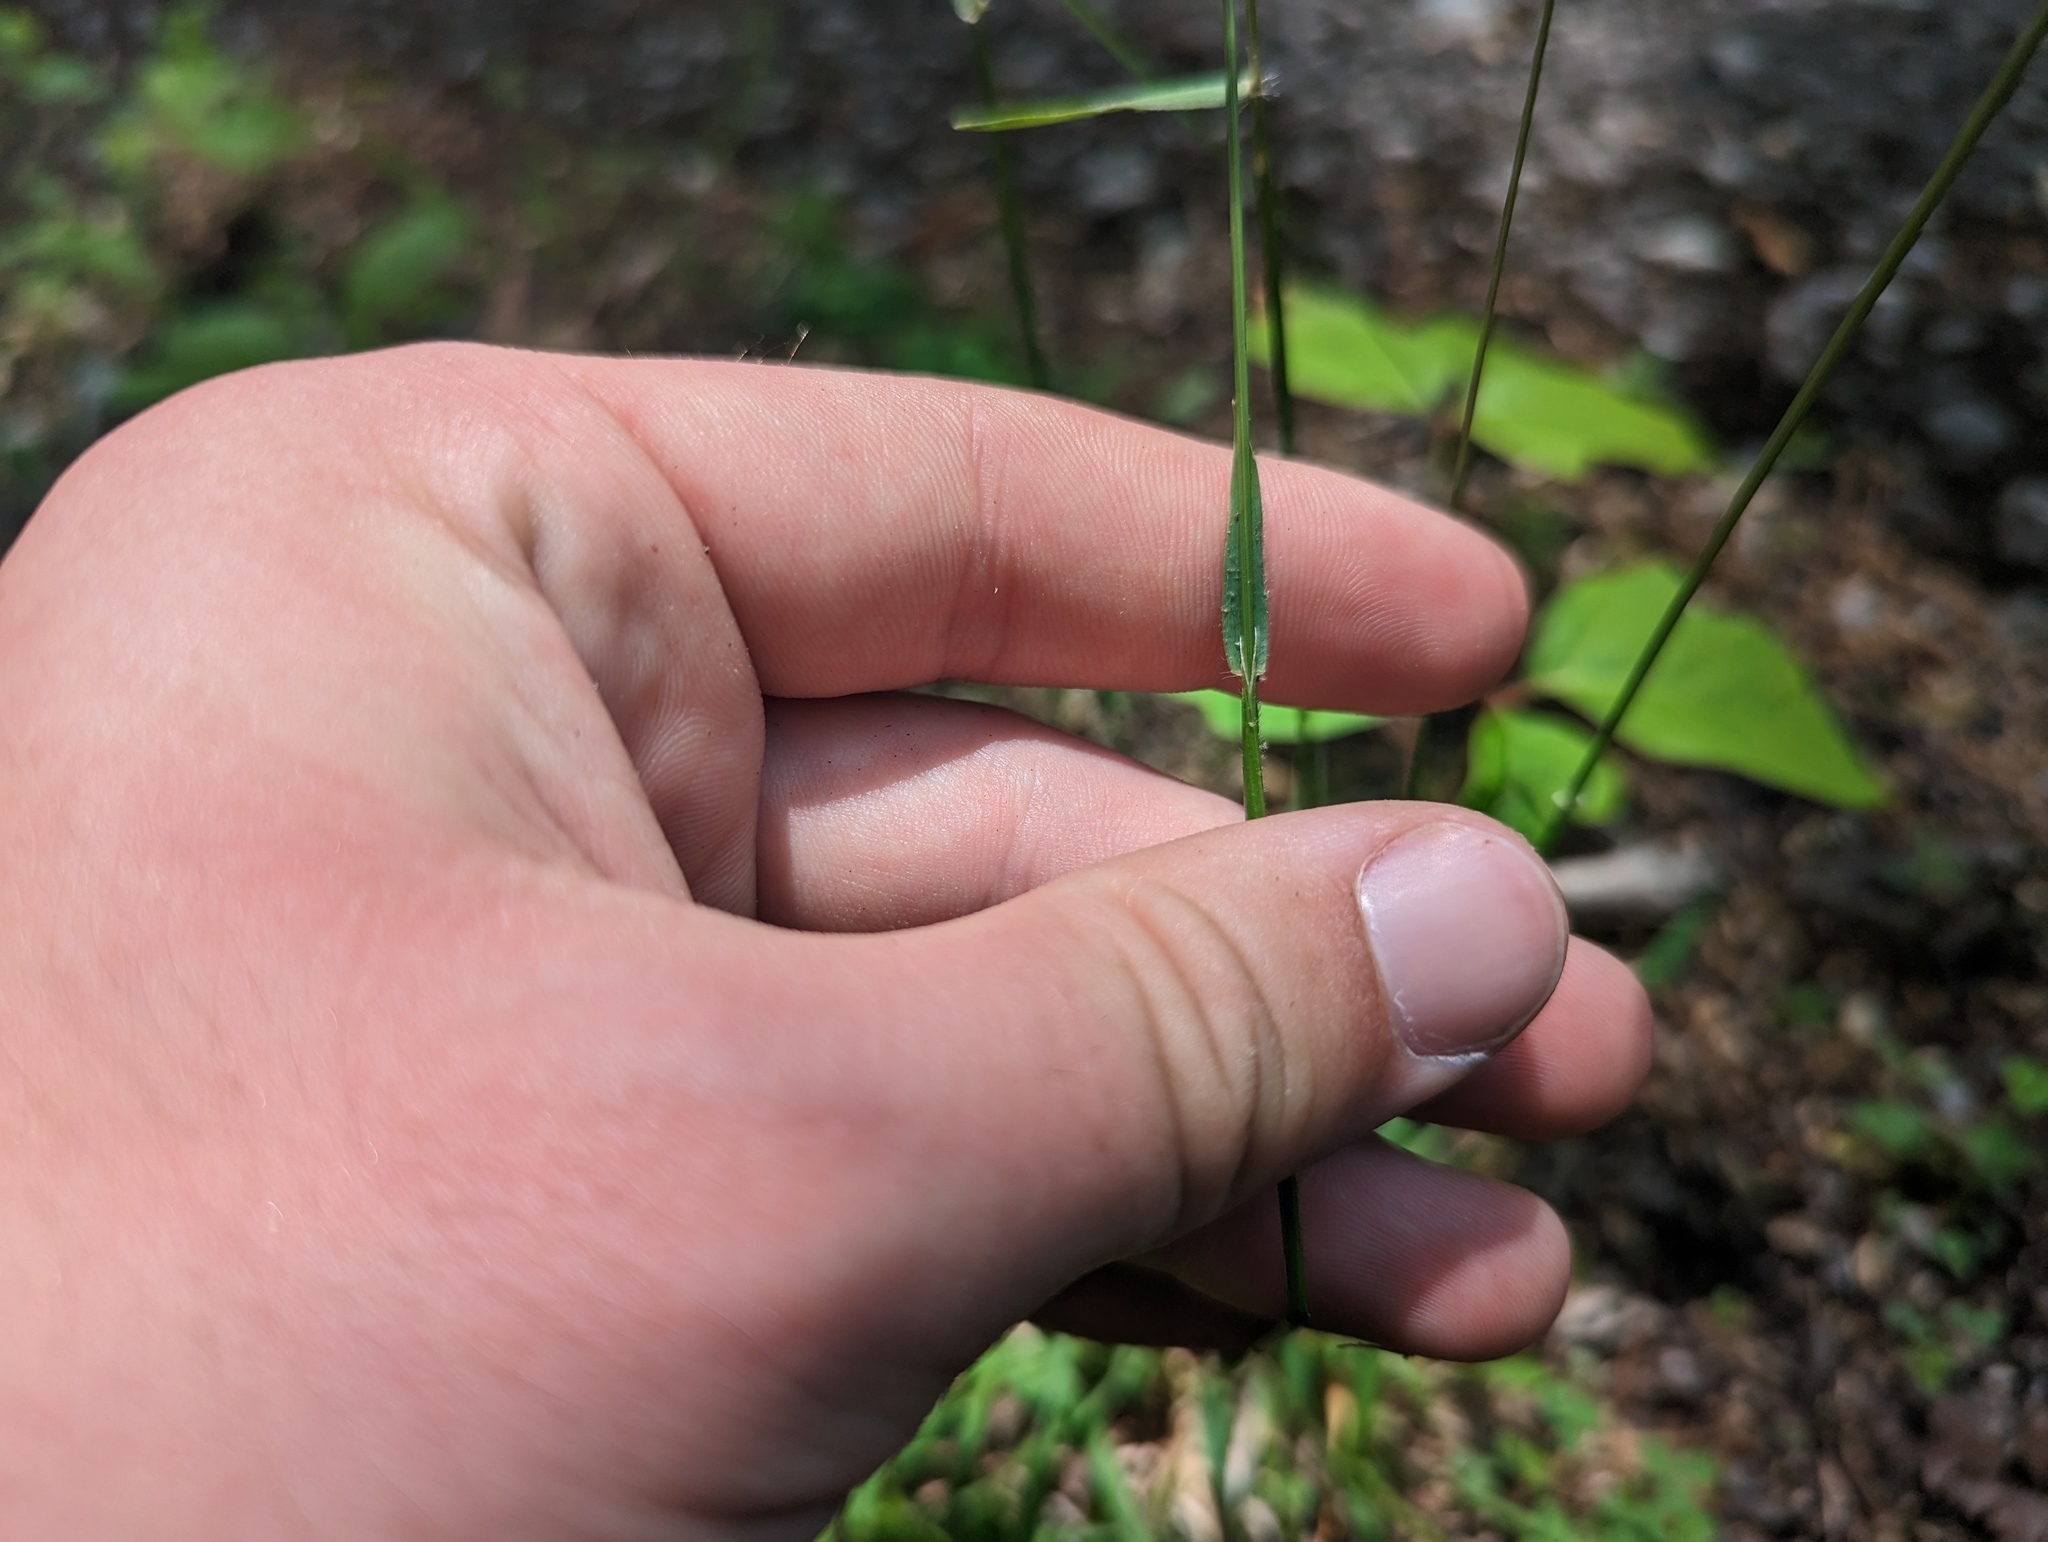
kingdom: Plantae
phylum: Tracheophyta
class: Liliopsida
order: Poales
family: Poaceae
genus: Anthoxanthum
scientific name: Anthoxanthum odoratum
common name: Sweet vernalgrass
